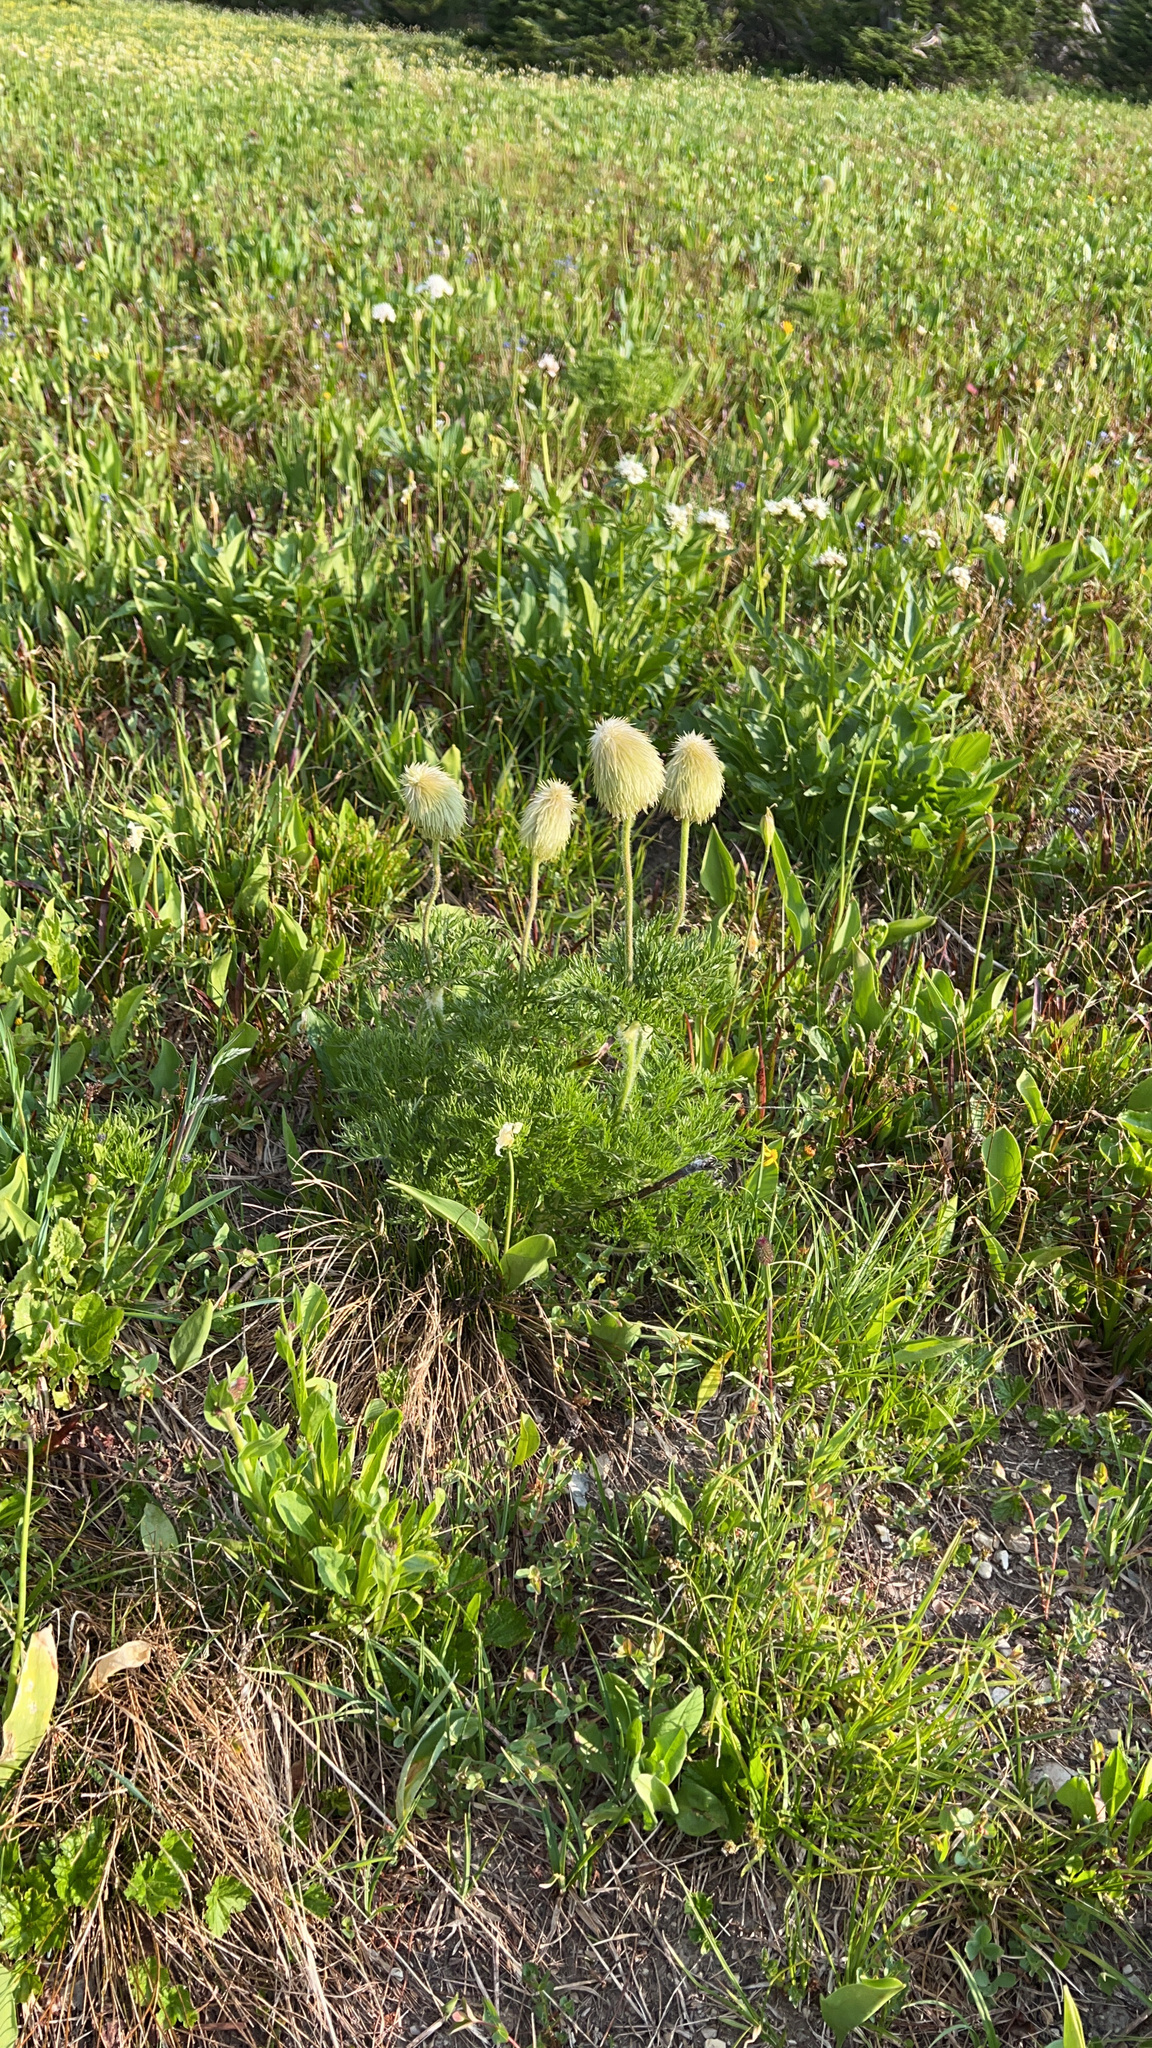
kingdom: Plantae
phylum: Tracheophyta
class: Magnoliopsida
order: Ranunculales
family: Ranunculaceae
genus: Pulsatilla
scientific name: Pulsatilla occidentalis
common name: Mountain pasqueflower
